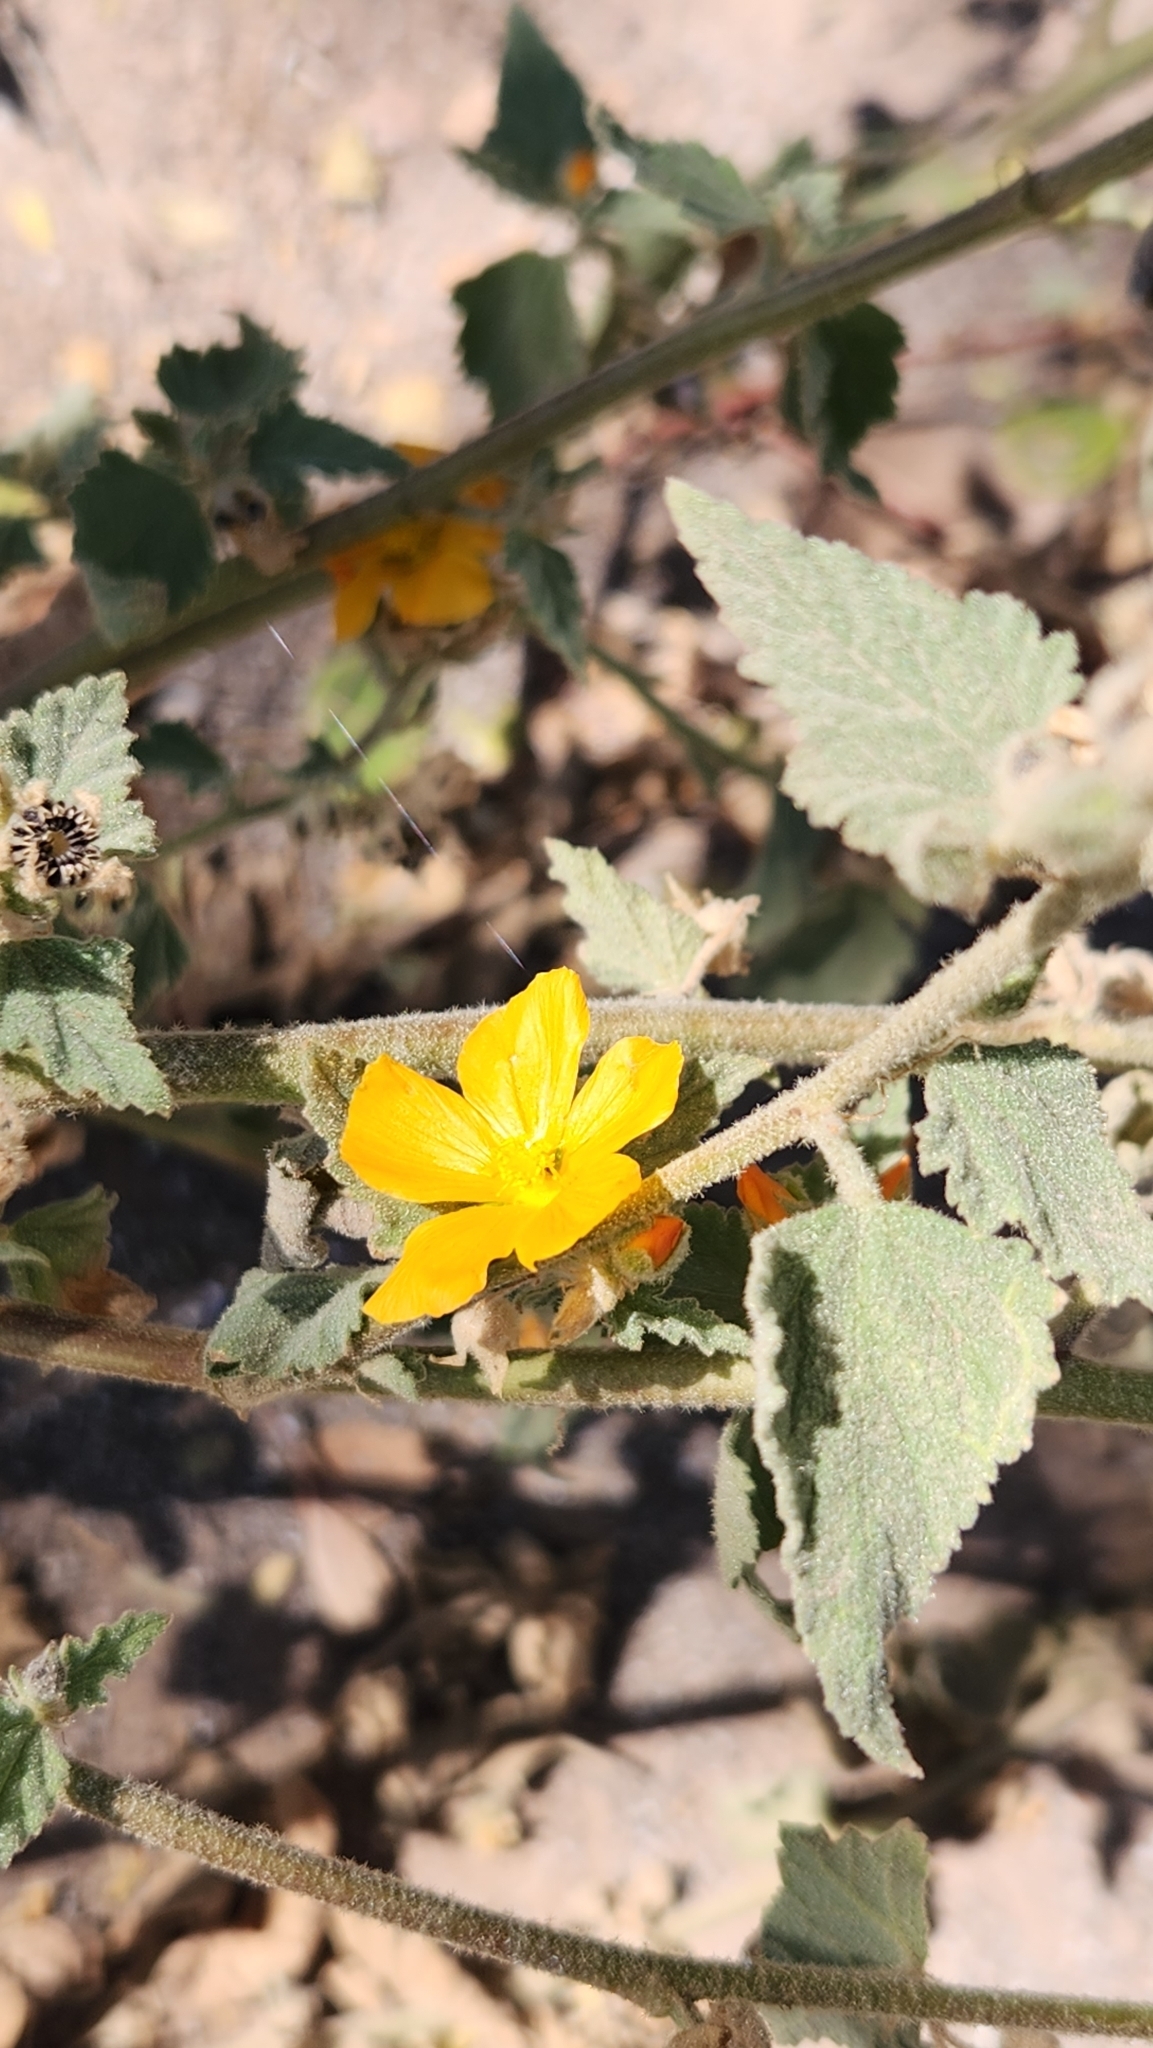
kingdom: Plantae
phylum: Tracheophyta
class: Magnoliopsida
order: Malvales
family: Malvaceae
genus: Sphaeralcea
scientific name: Sphaeralcea coulteri
